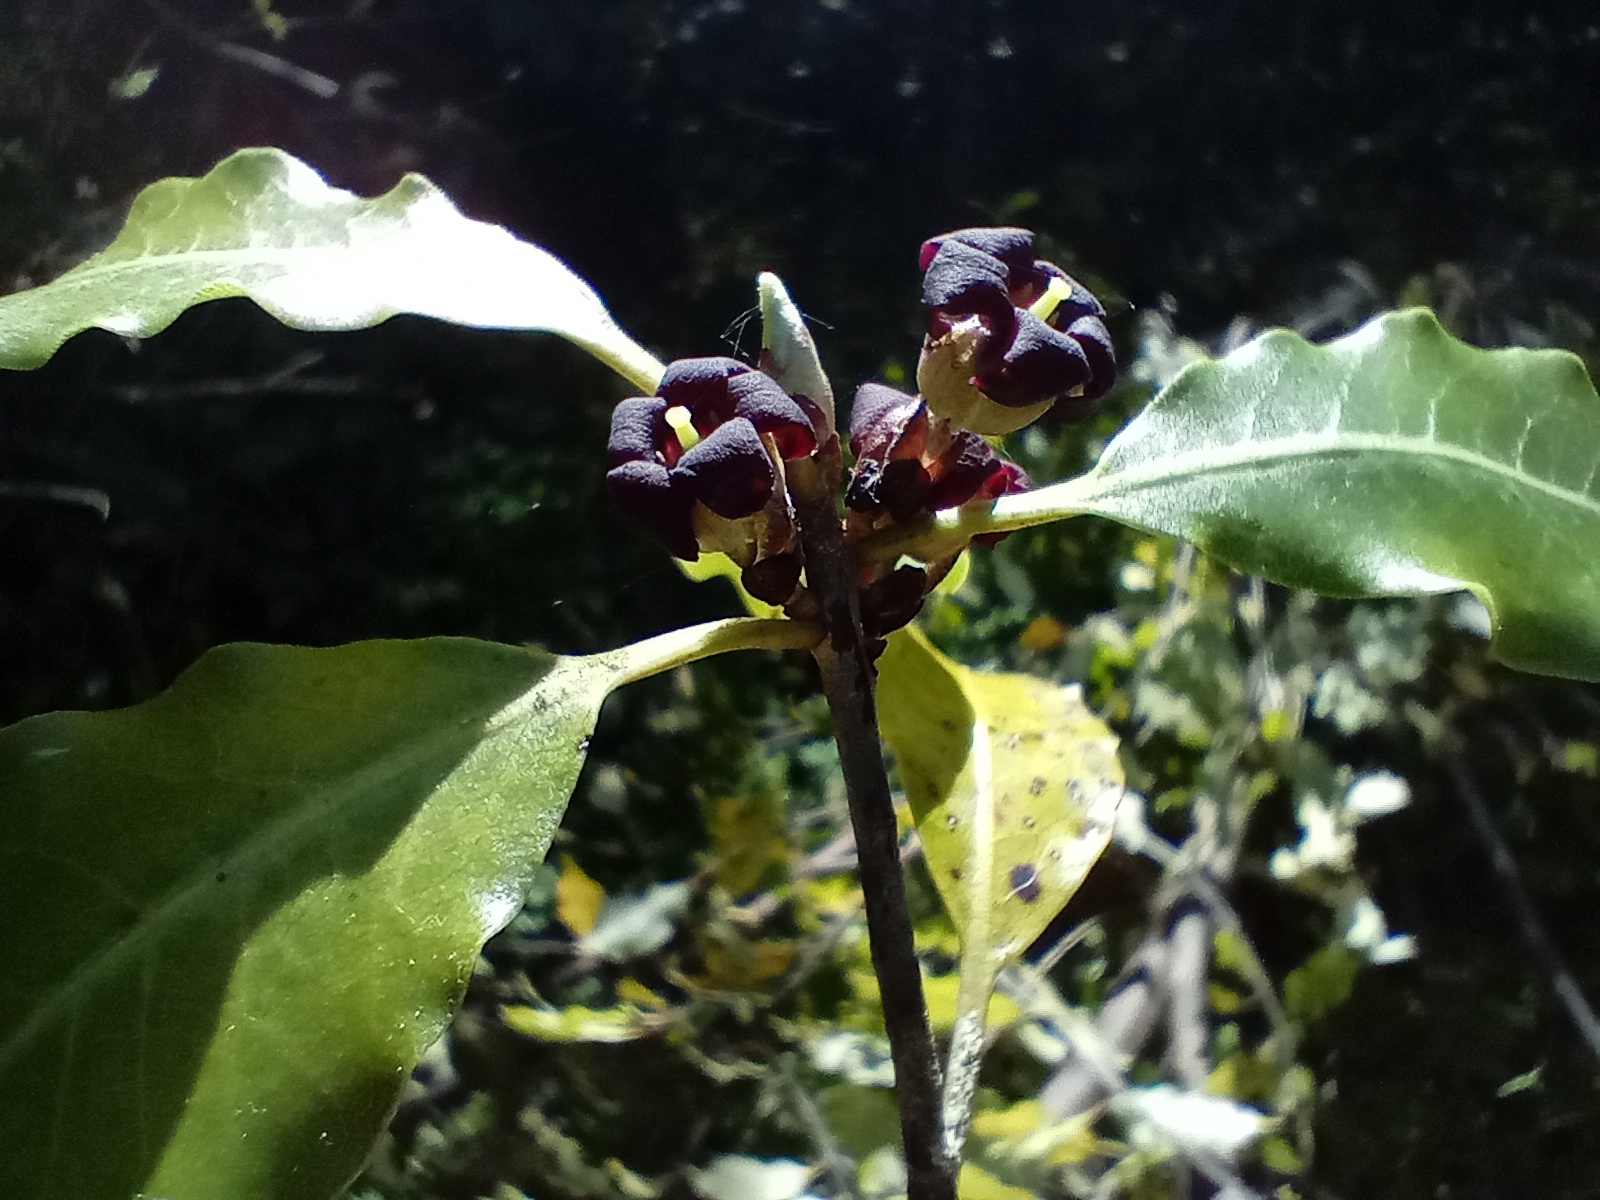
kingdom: Plantae
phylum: Tracheophyta
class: Magnoliopsida
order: Apiales
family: Pittosporaceae
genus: Pittosporum
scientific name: Pittosporum tenuifolium
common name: Kohuhu
